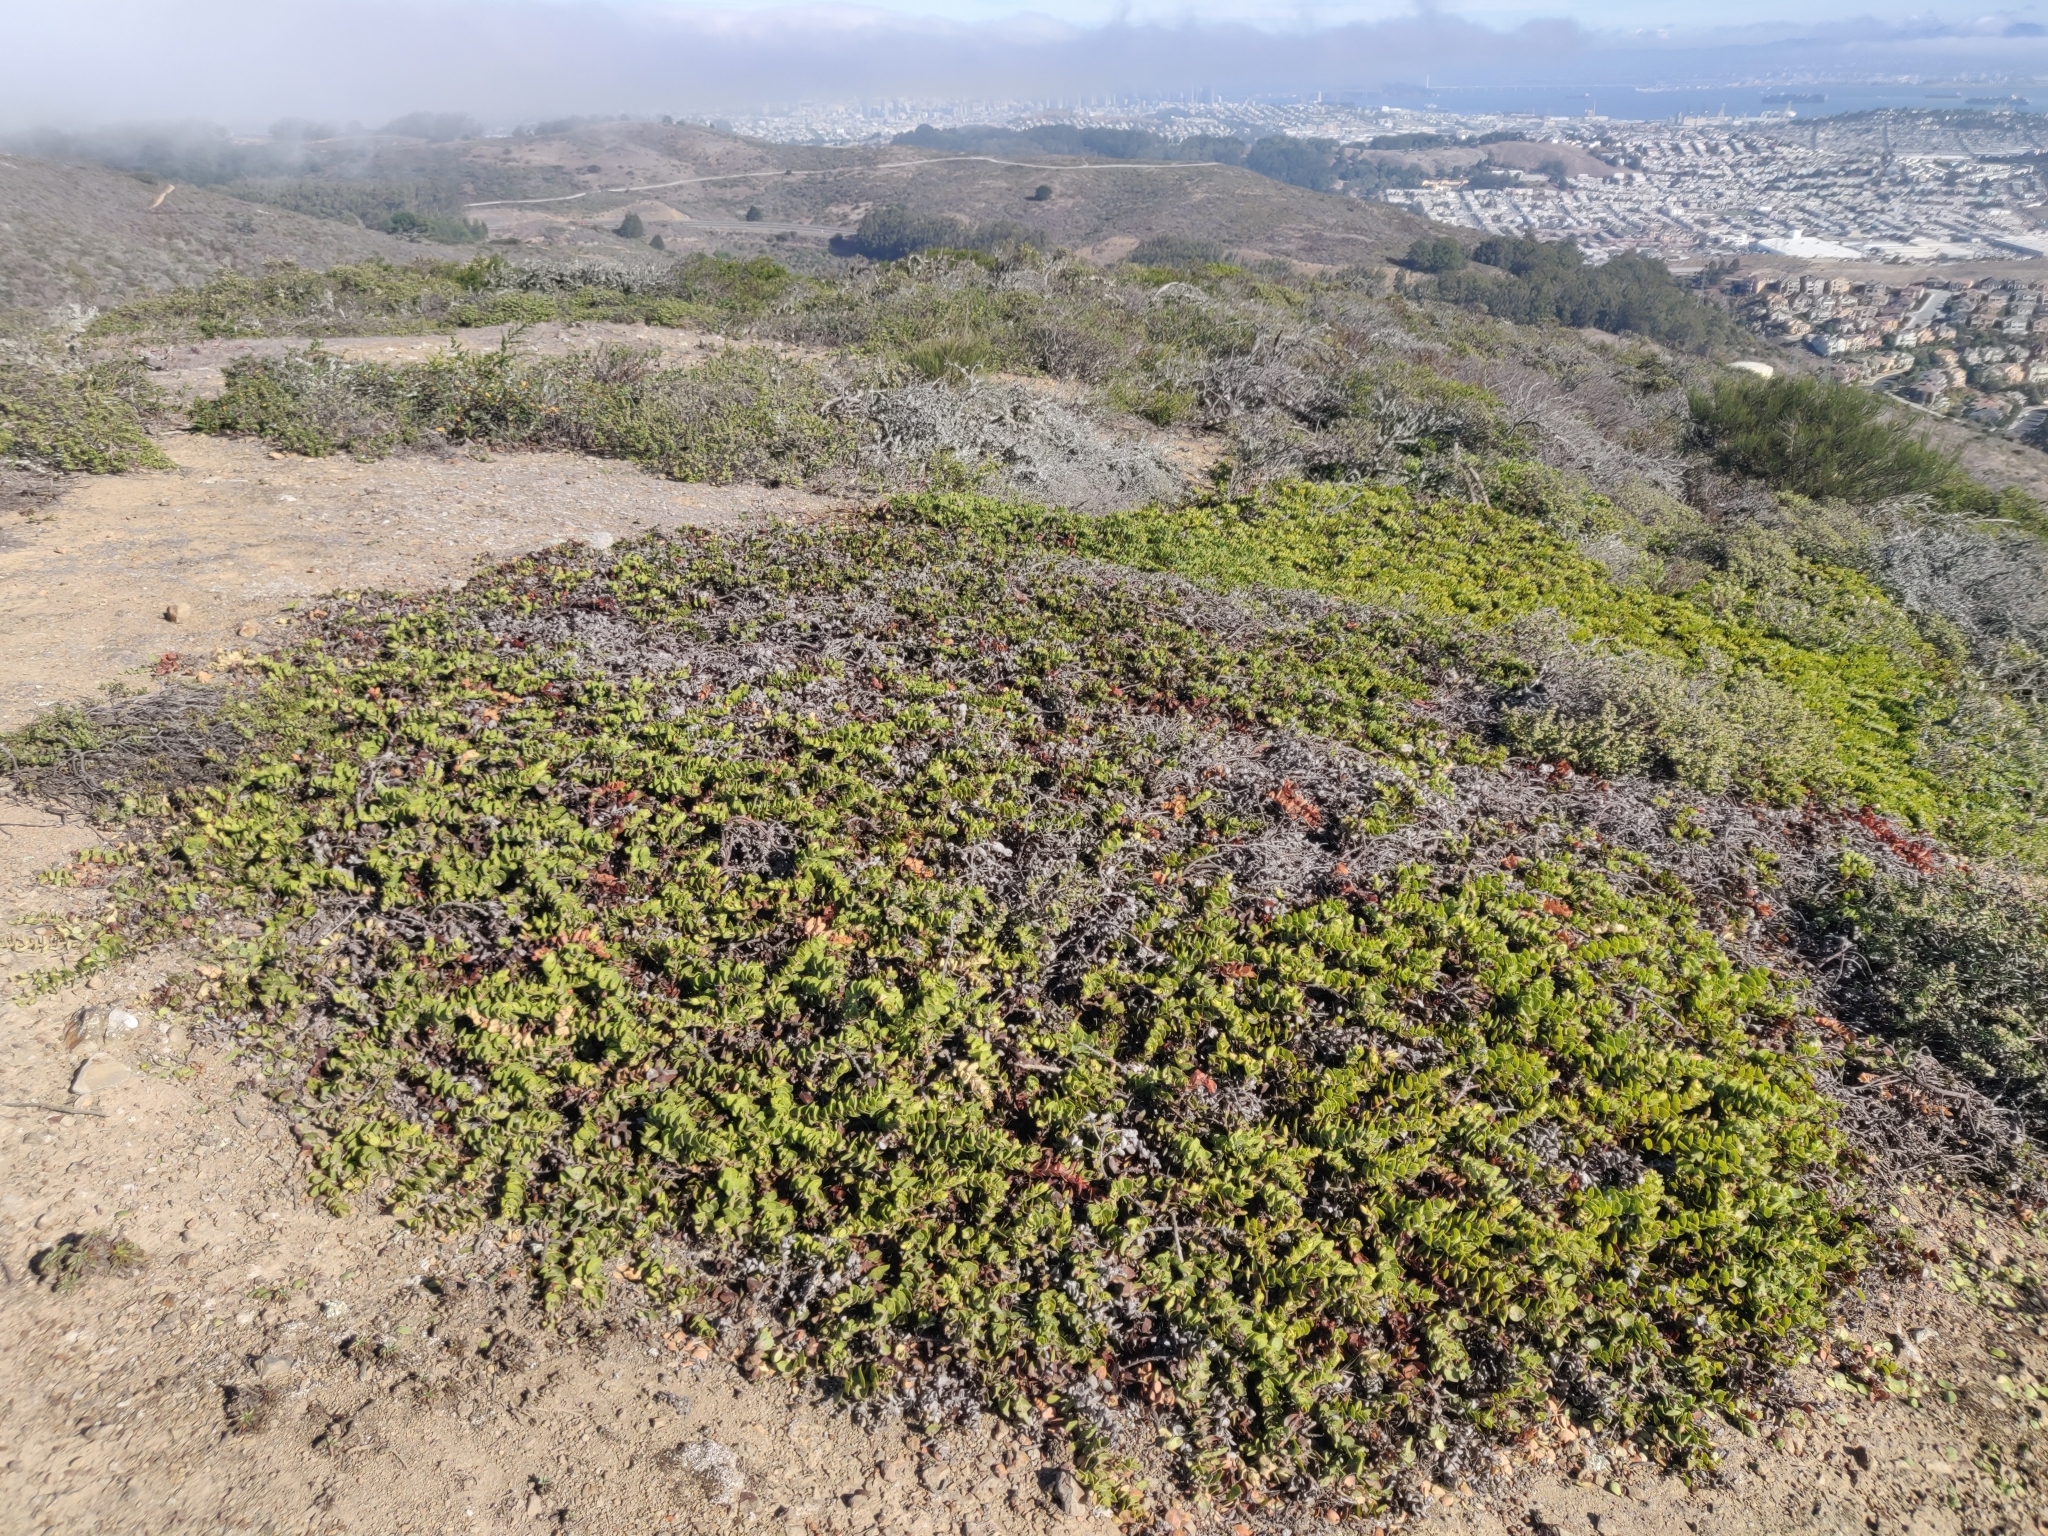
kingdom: Plantae
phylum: Tracheophyta
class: Magnoliopsida
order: Ericales
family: Ericaceae
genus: Arctostaphylos
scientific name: Arctostaphylos imbricata
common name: San bruno mountain manzanita
